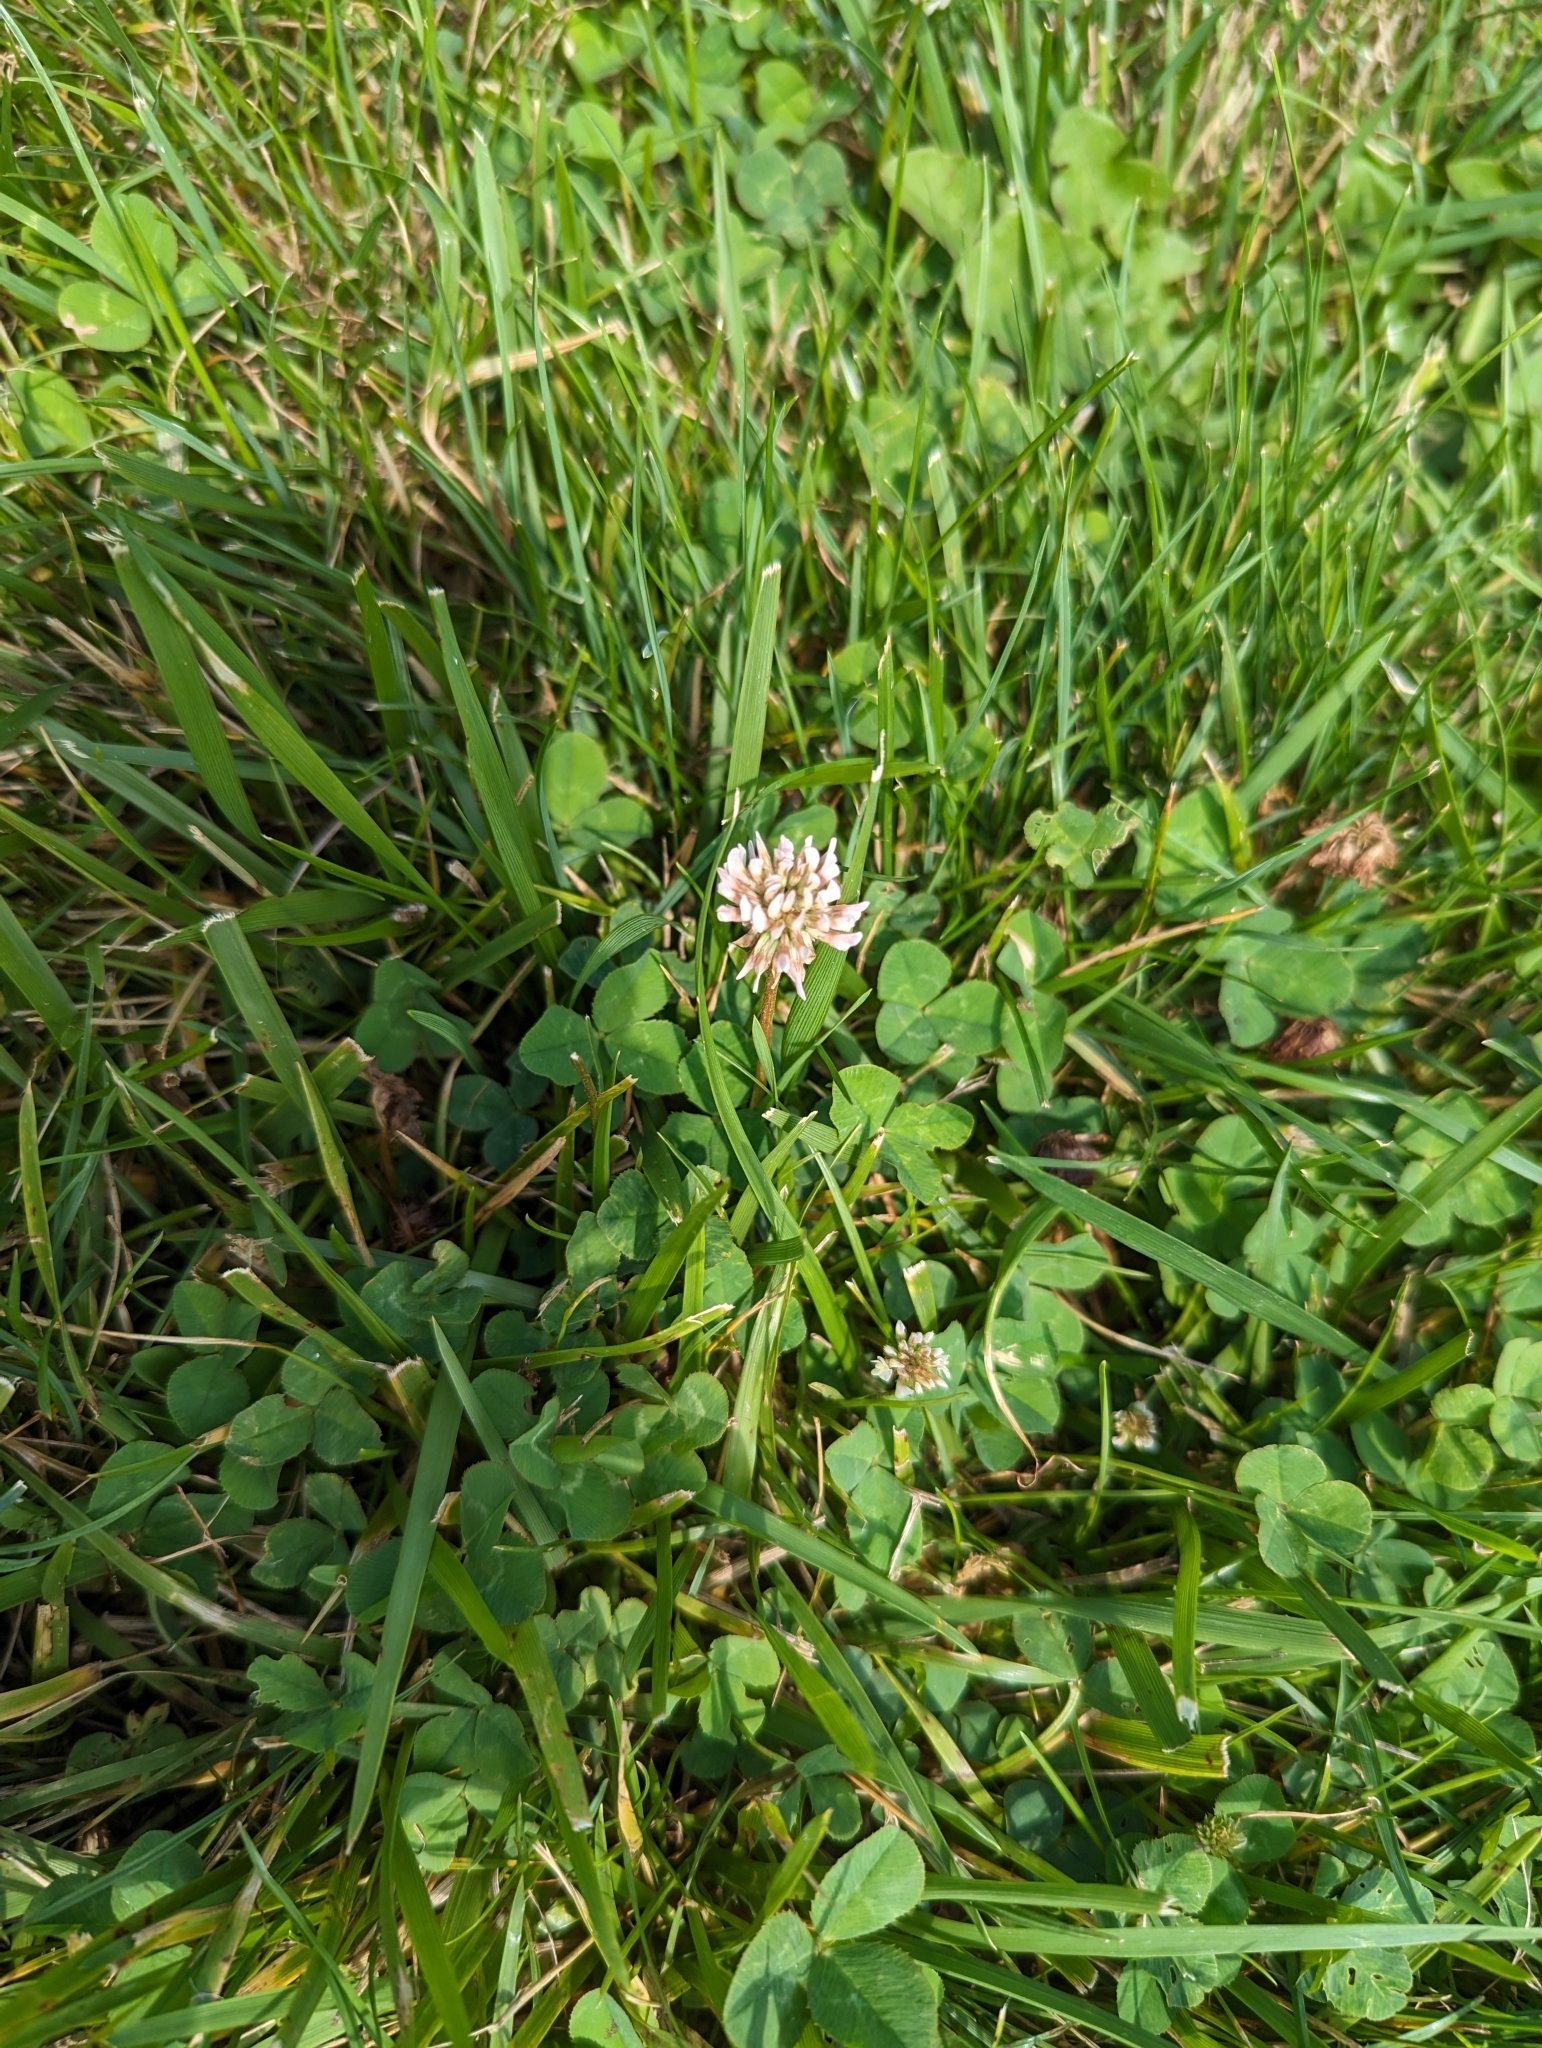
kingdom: Plantae
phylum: Tracheophyta
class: Magnoliopsida
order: Fabales
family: Fabaceae
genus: Trifolium
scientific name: Trifolium repens
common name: White clover
